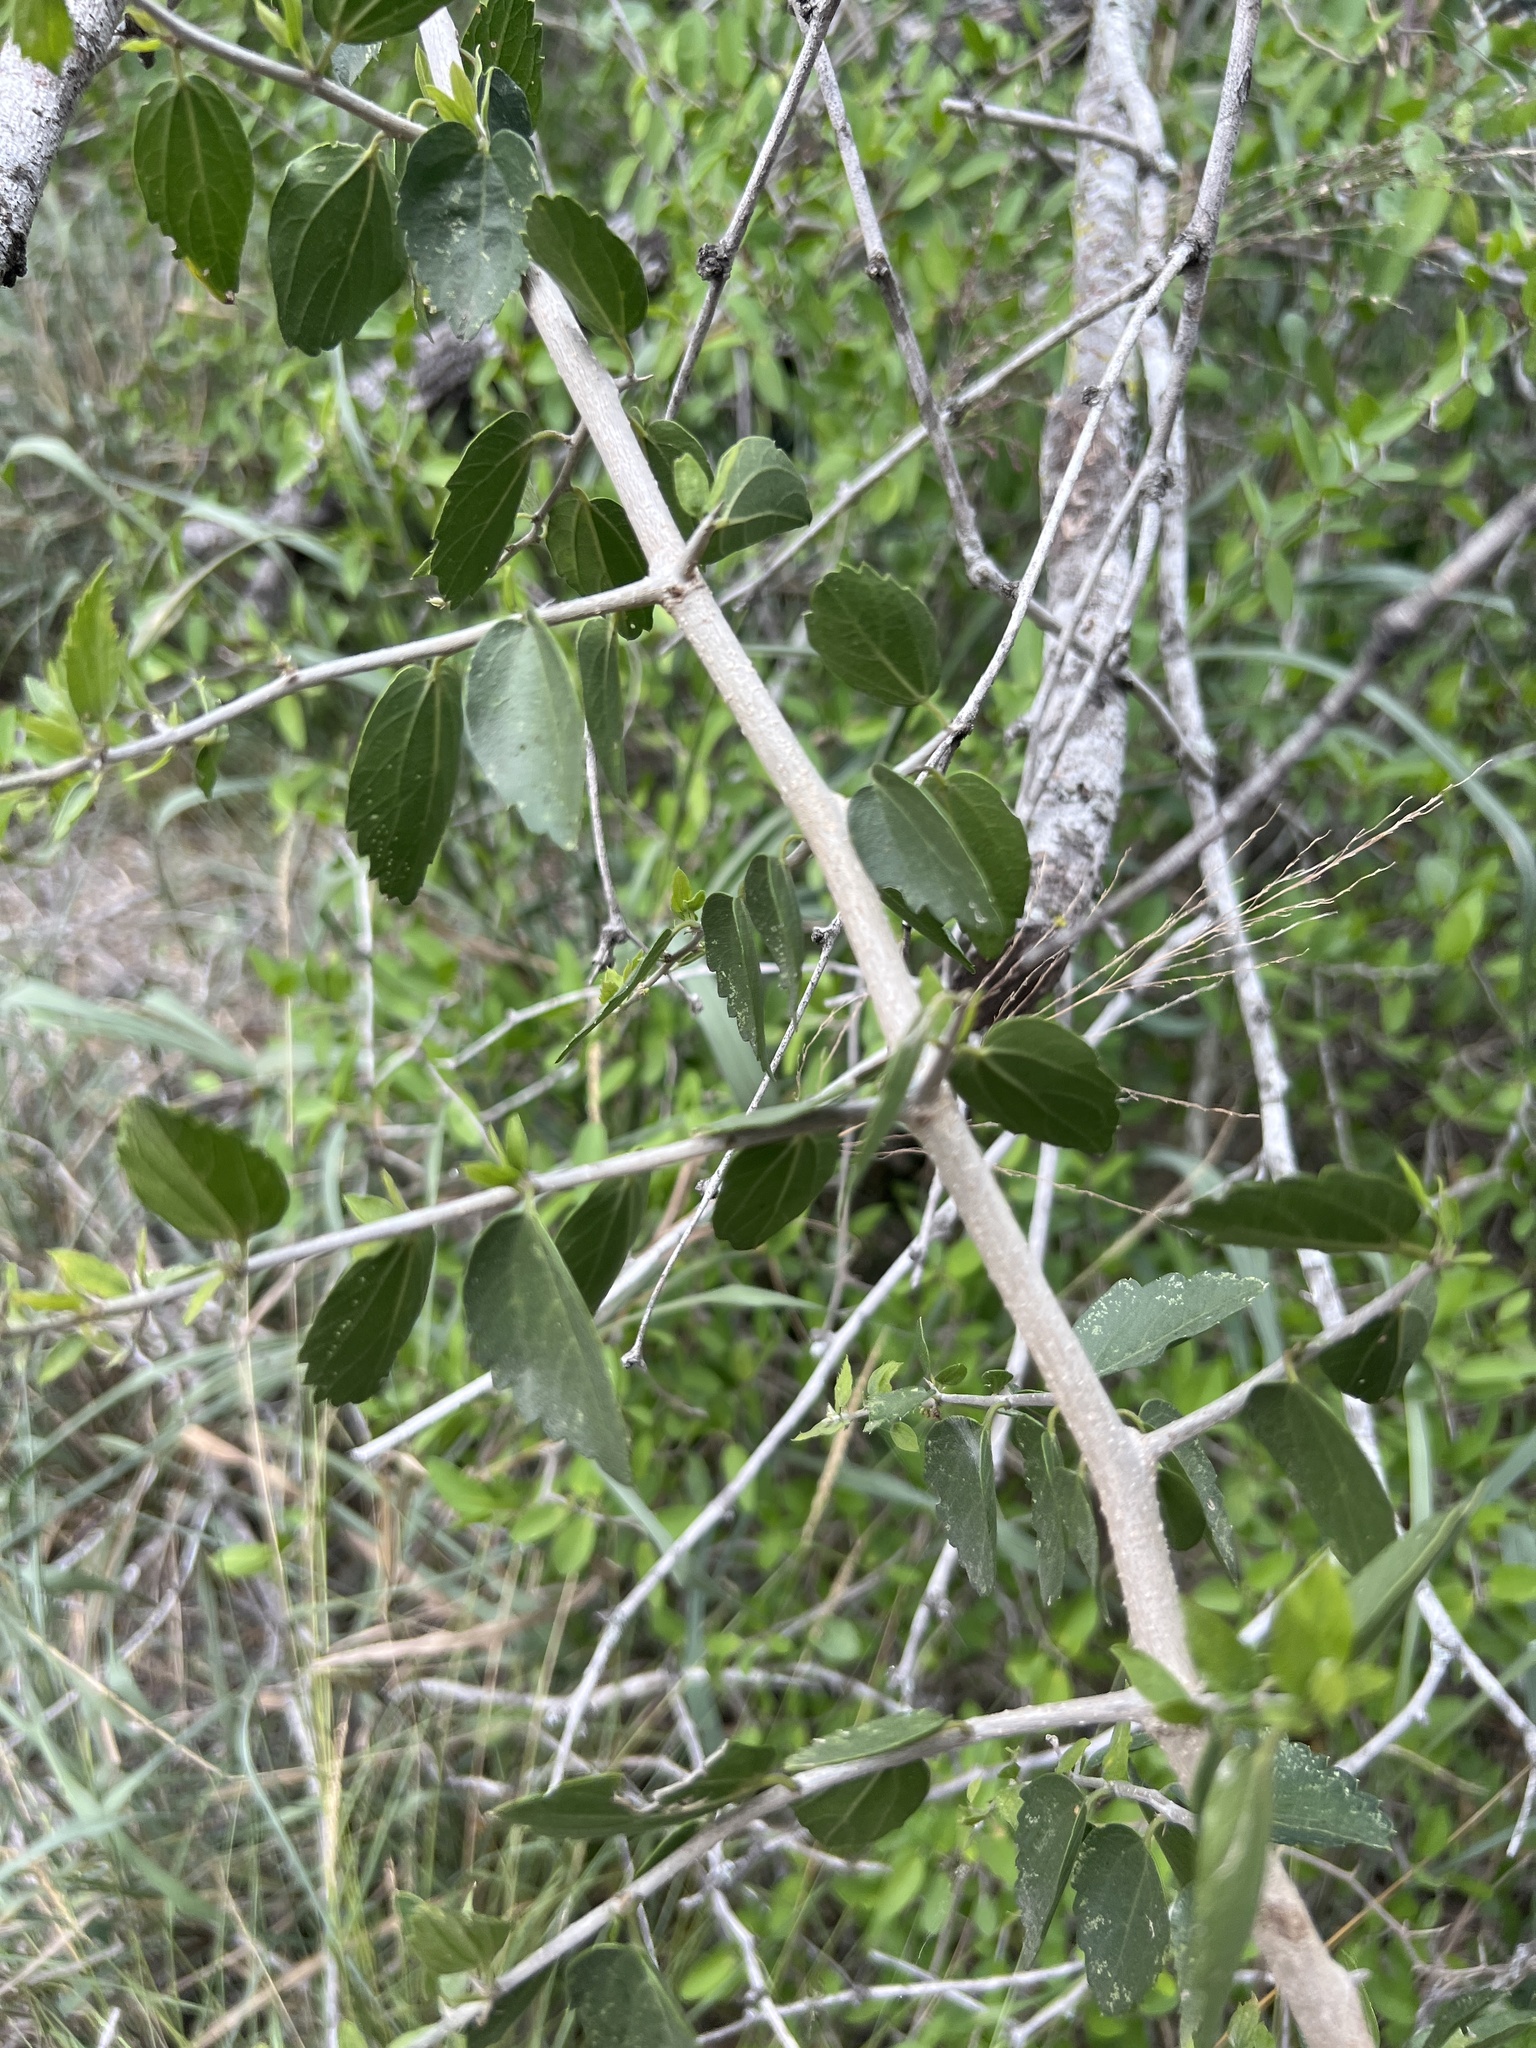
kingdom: Plantae
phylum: Tracheophyta
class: Magnoliopsida
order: Rosales
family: Cannabaceae
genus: Celtis
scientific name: Celtis pallida
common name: Desert hackberry
